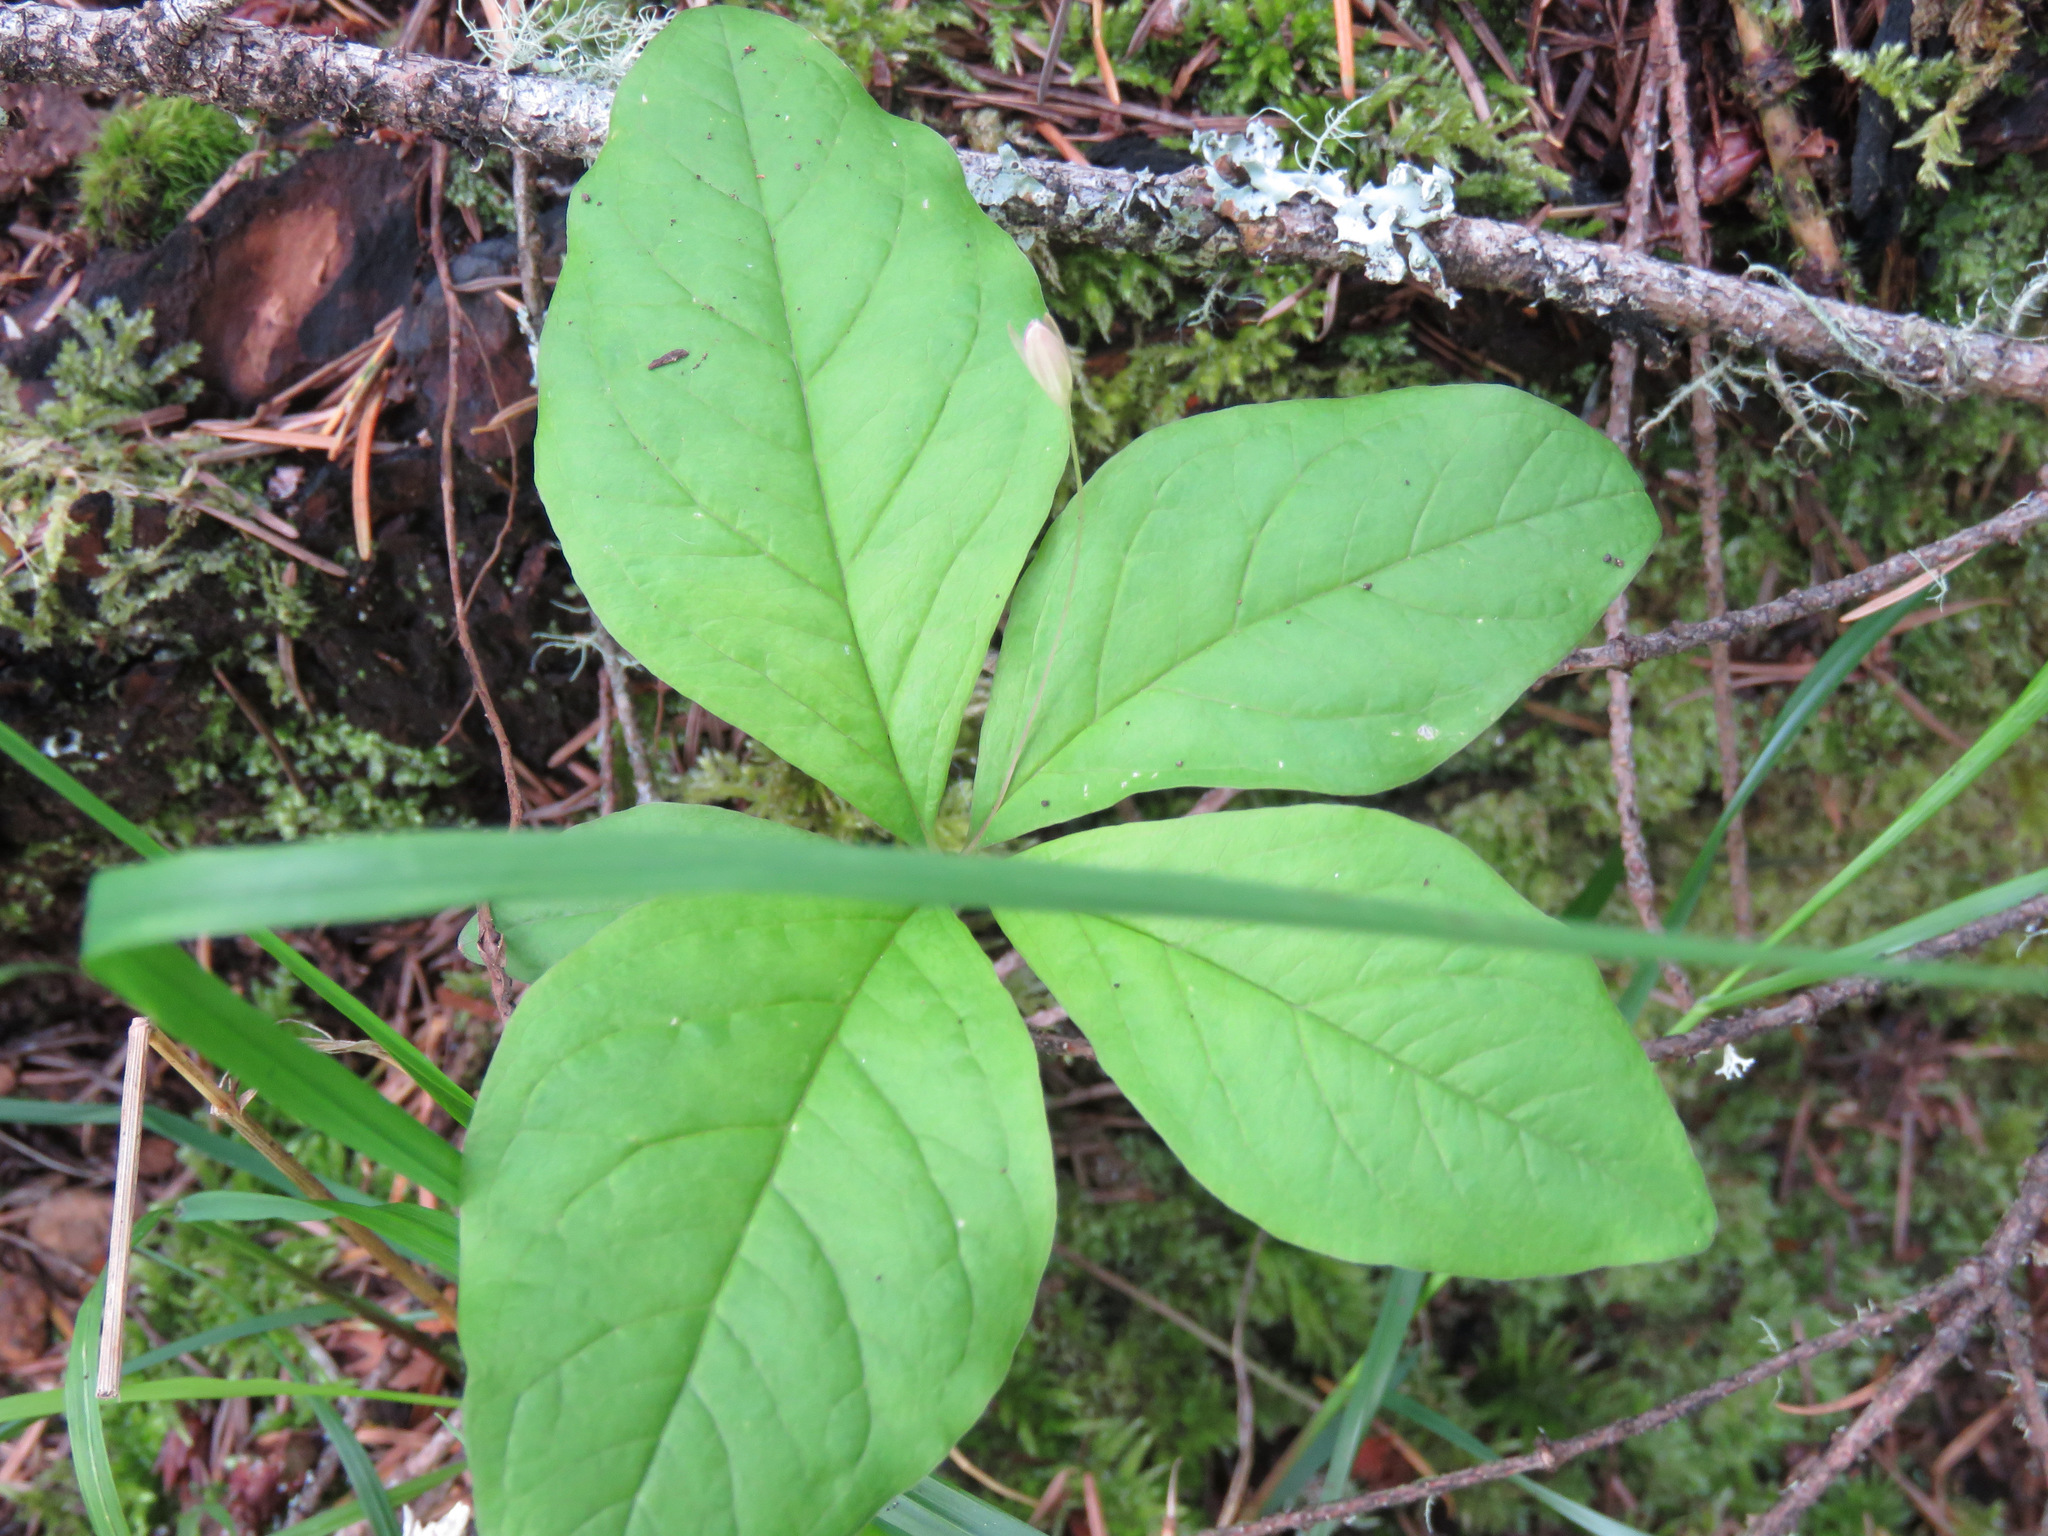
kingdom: Plantae
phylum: Tracheophyta
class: Magnoliopsida
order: Ericales
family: Primulaceae
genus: Lysimachia
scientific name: Lysimachia latifolia
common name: Pacific starflower
